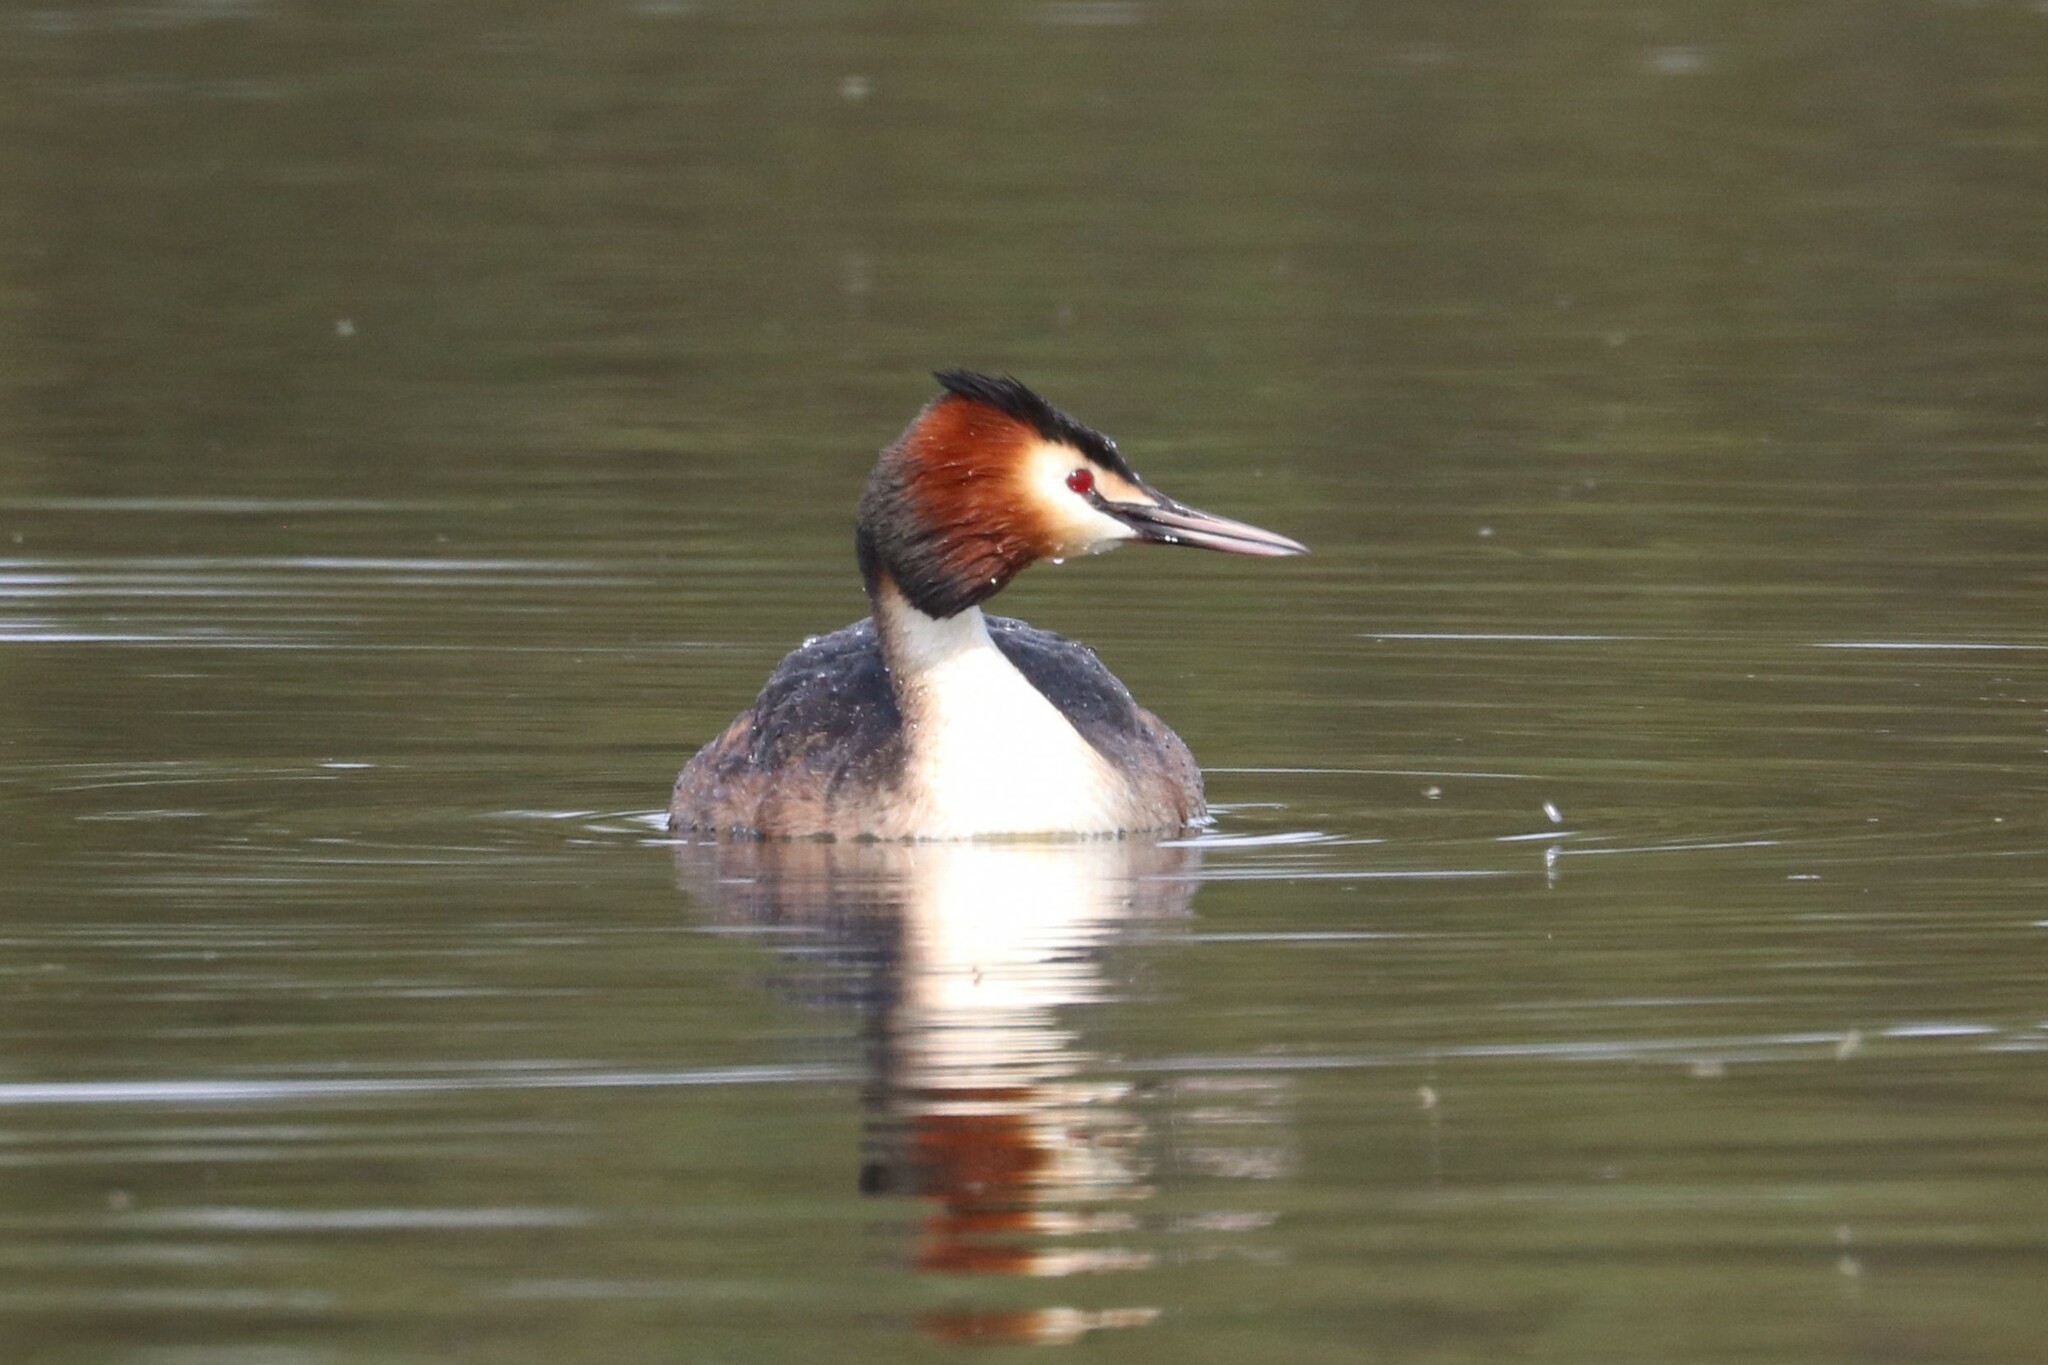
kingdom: Animalia
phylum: Chordata
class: Aves
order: Podicipediformes
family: Podicipedidae
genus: Podiceps
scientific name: Podiceps cristatus
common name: Great crested grebe
